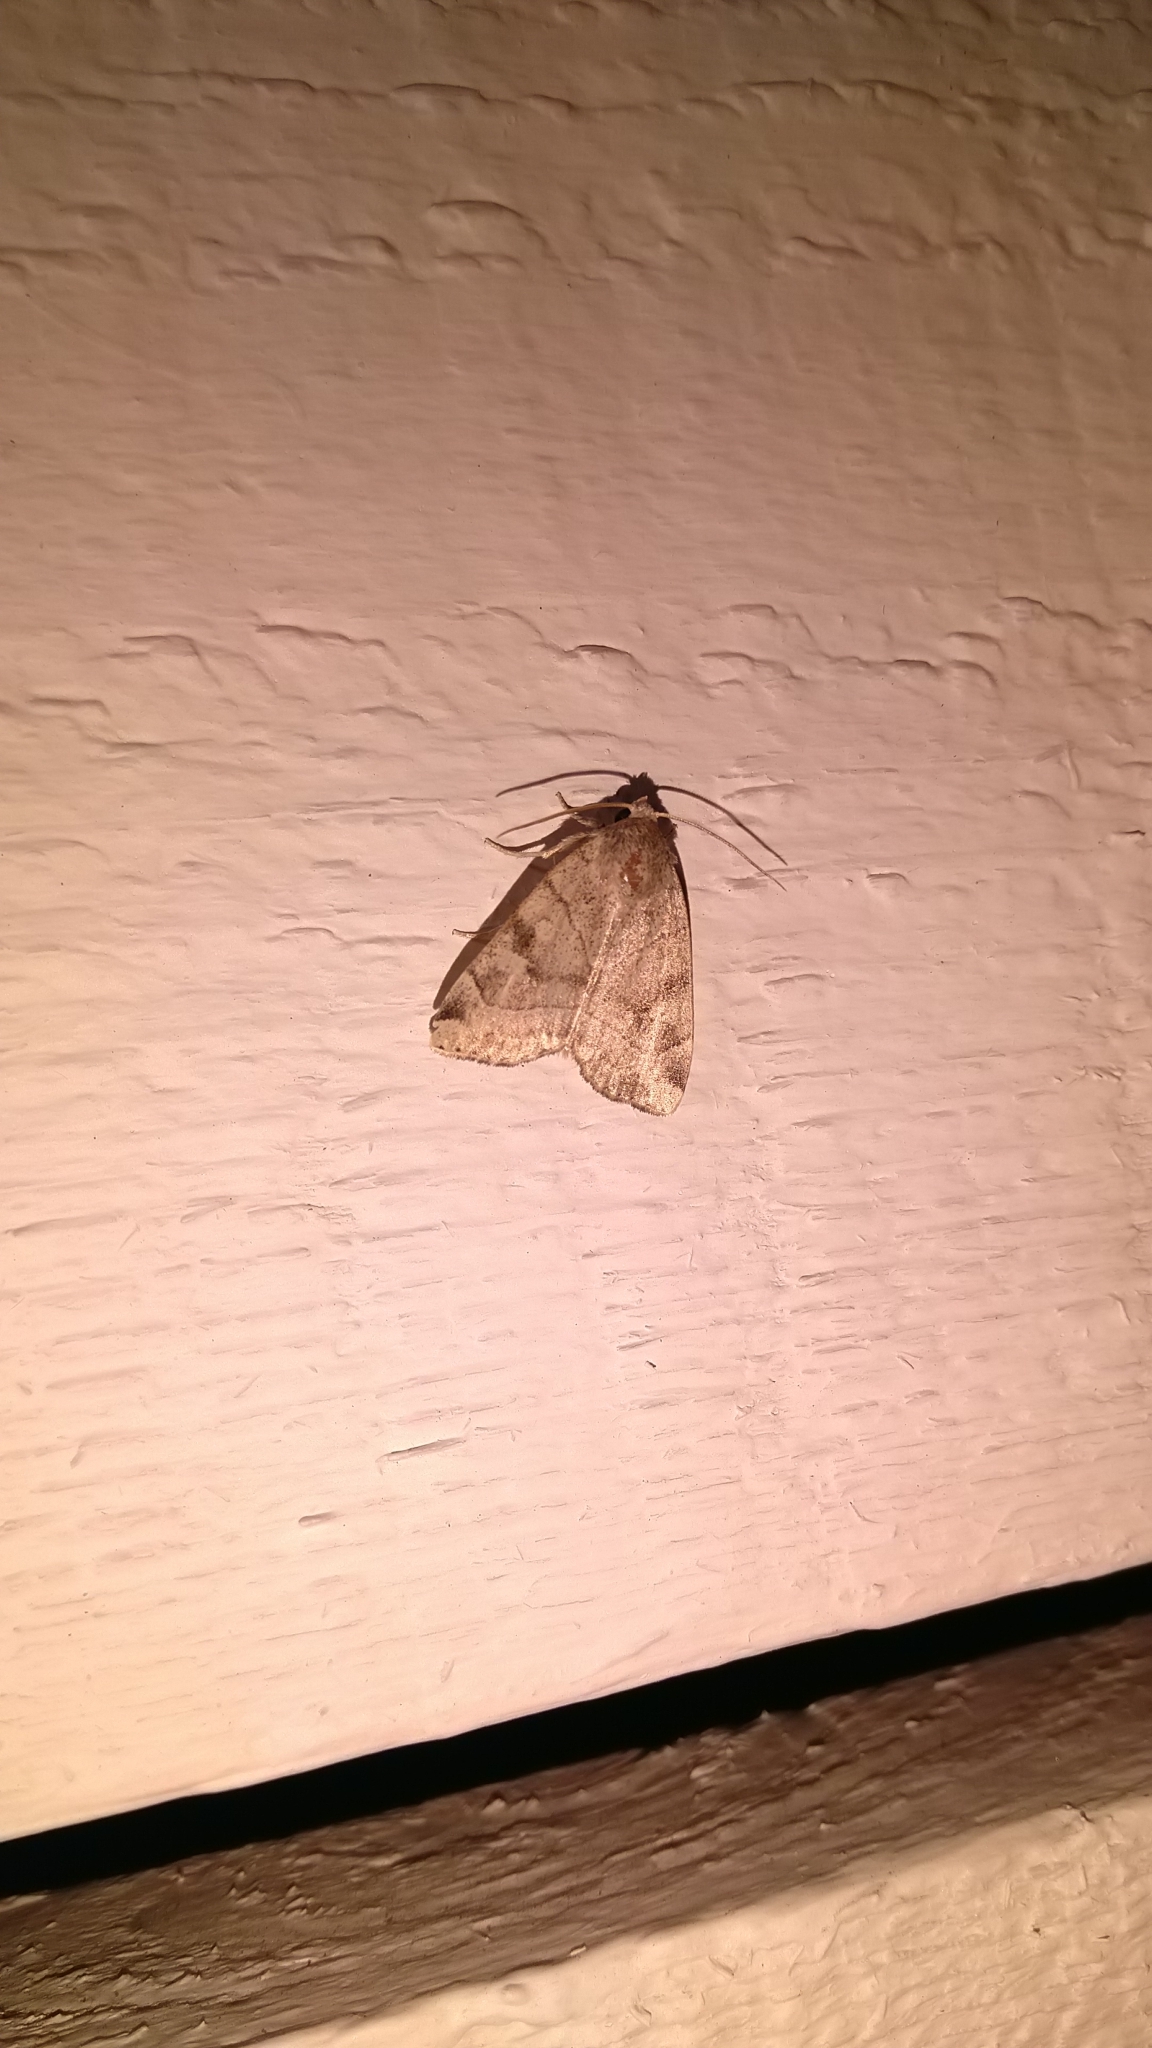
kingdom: Animalia
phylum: Arthropoda
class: Insecta
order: Lepidoptera
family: Noctuidae
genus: Cosmia
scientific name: Cosmia trapezina
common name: Dun-bar
